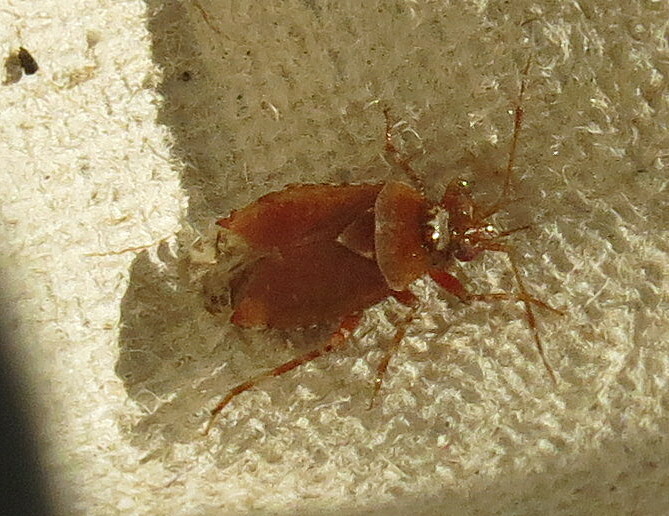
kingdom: Animalia
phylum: Arthropoda
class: Insecta
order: Hemiptera
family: Miridae
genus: Alloeotomus
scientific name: Alloeotomus gothicus
